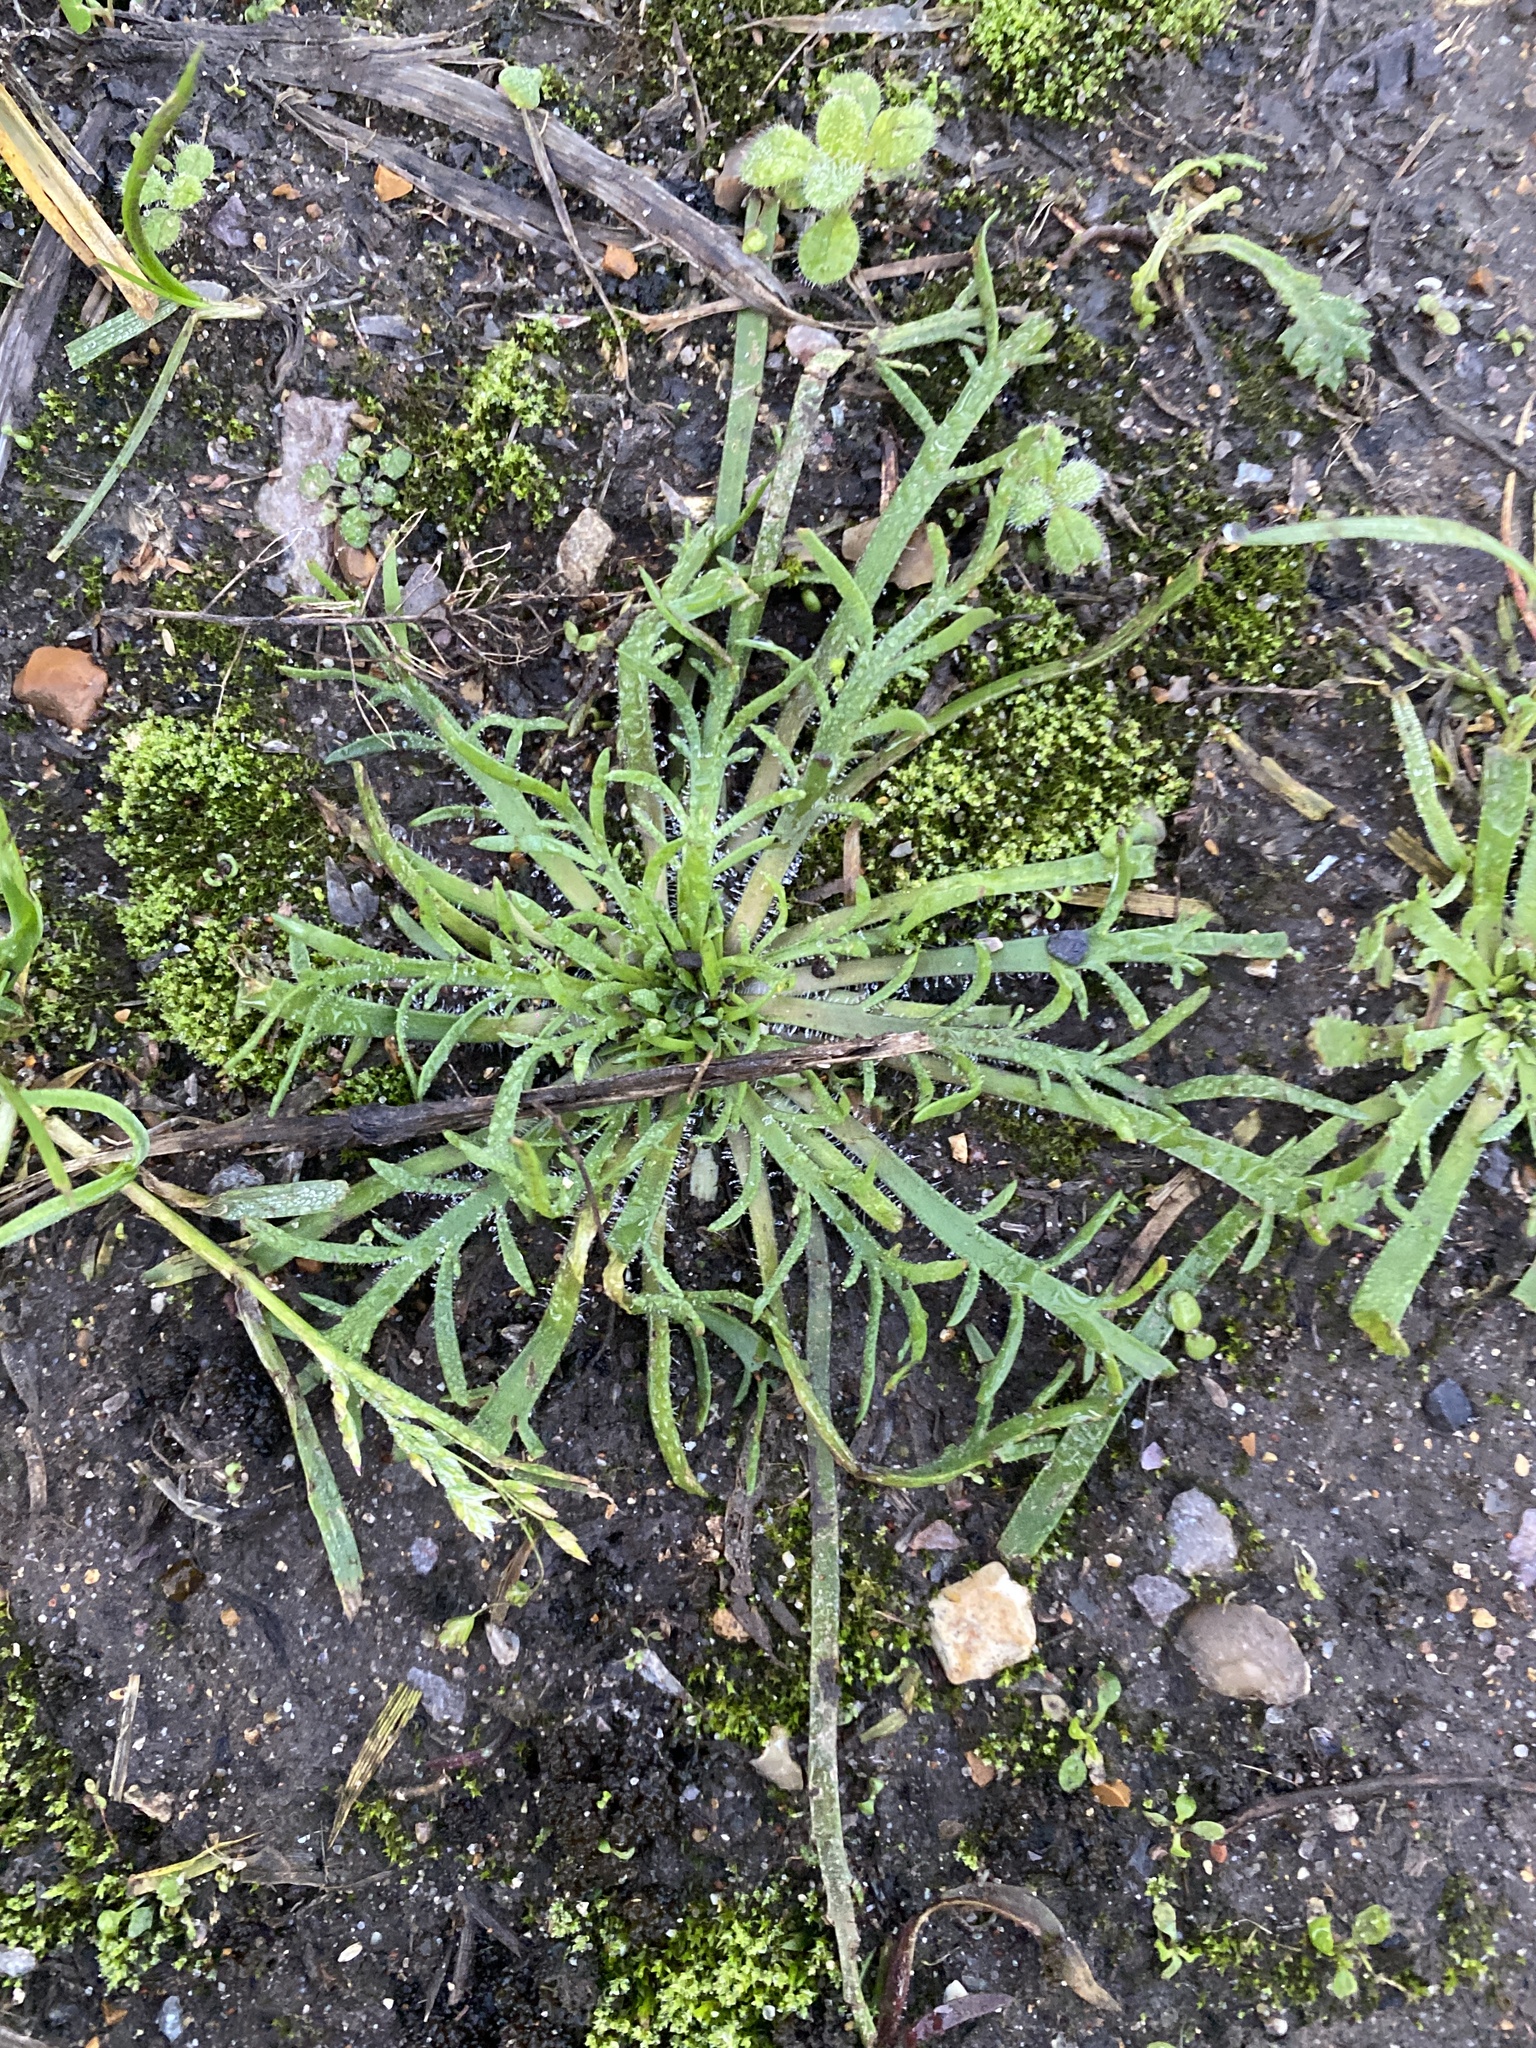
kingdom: Plantae
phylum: Tracheophyta
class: Magnoliopsida
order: Lamiales
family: Plantaginaceae
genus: Plantago
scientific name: Plantago coronopus
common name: Buck's-horn plantain
